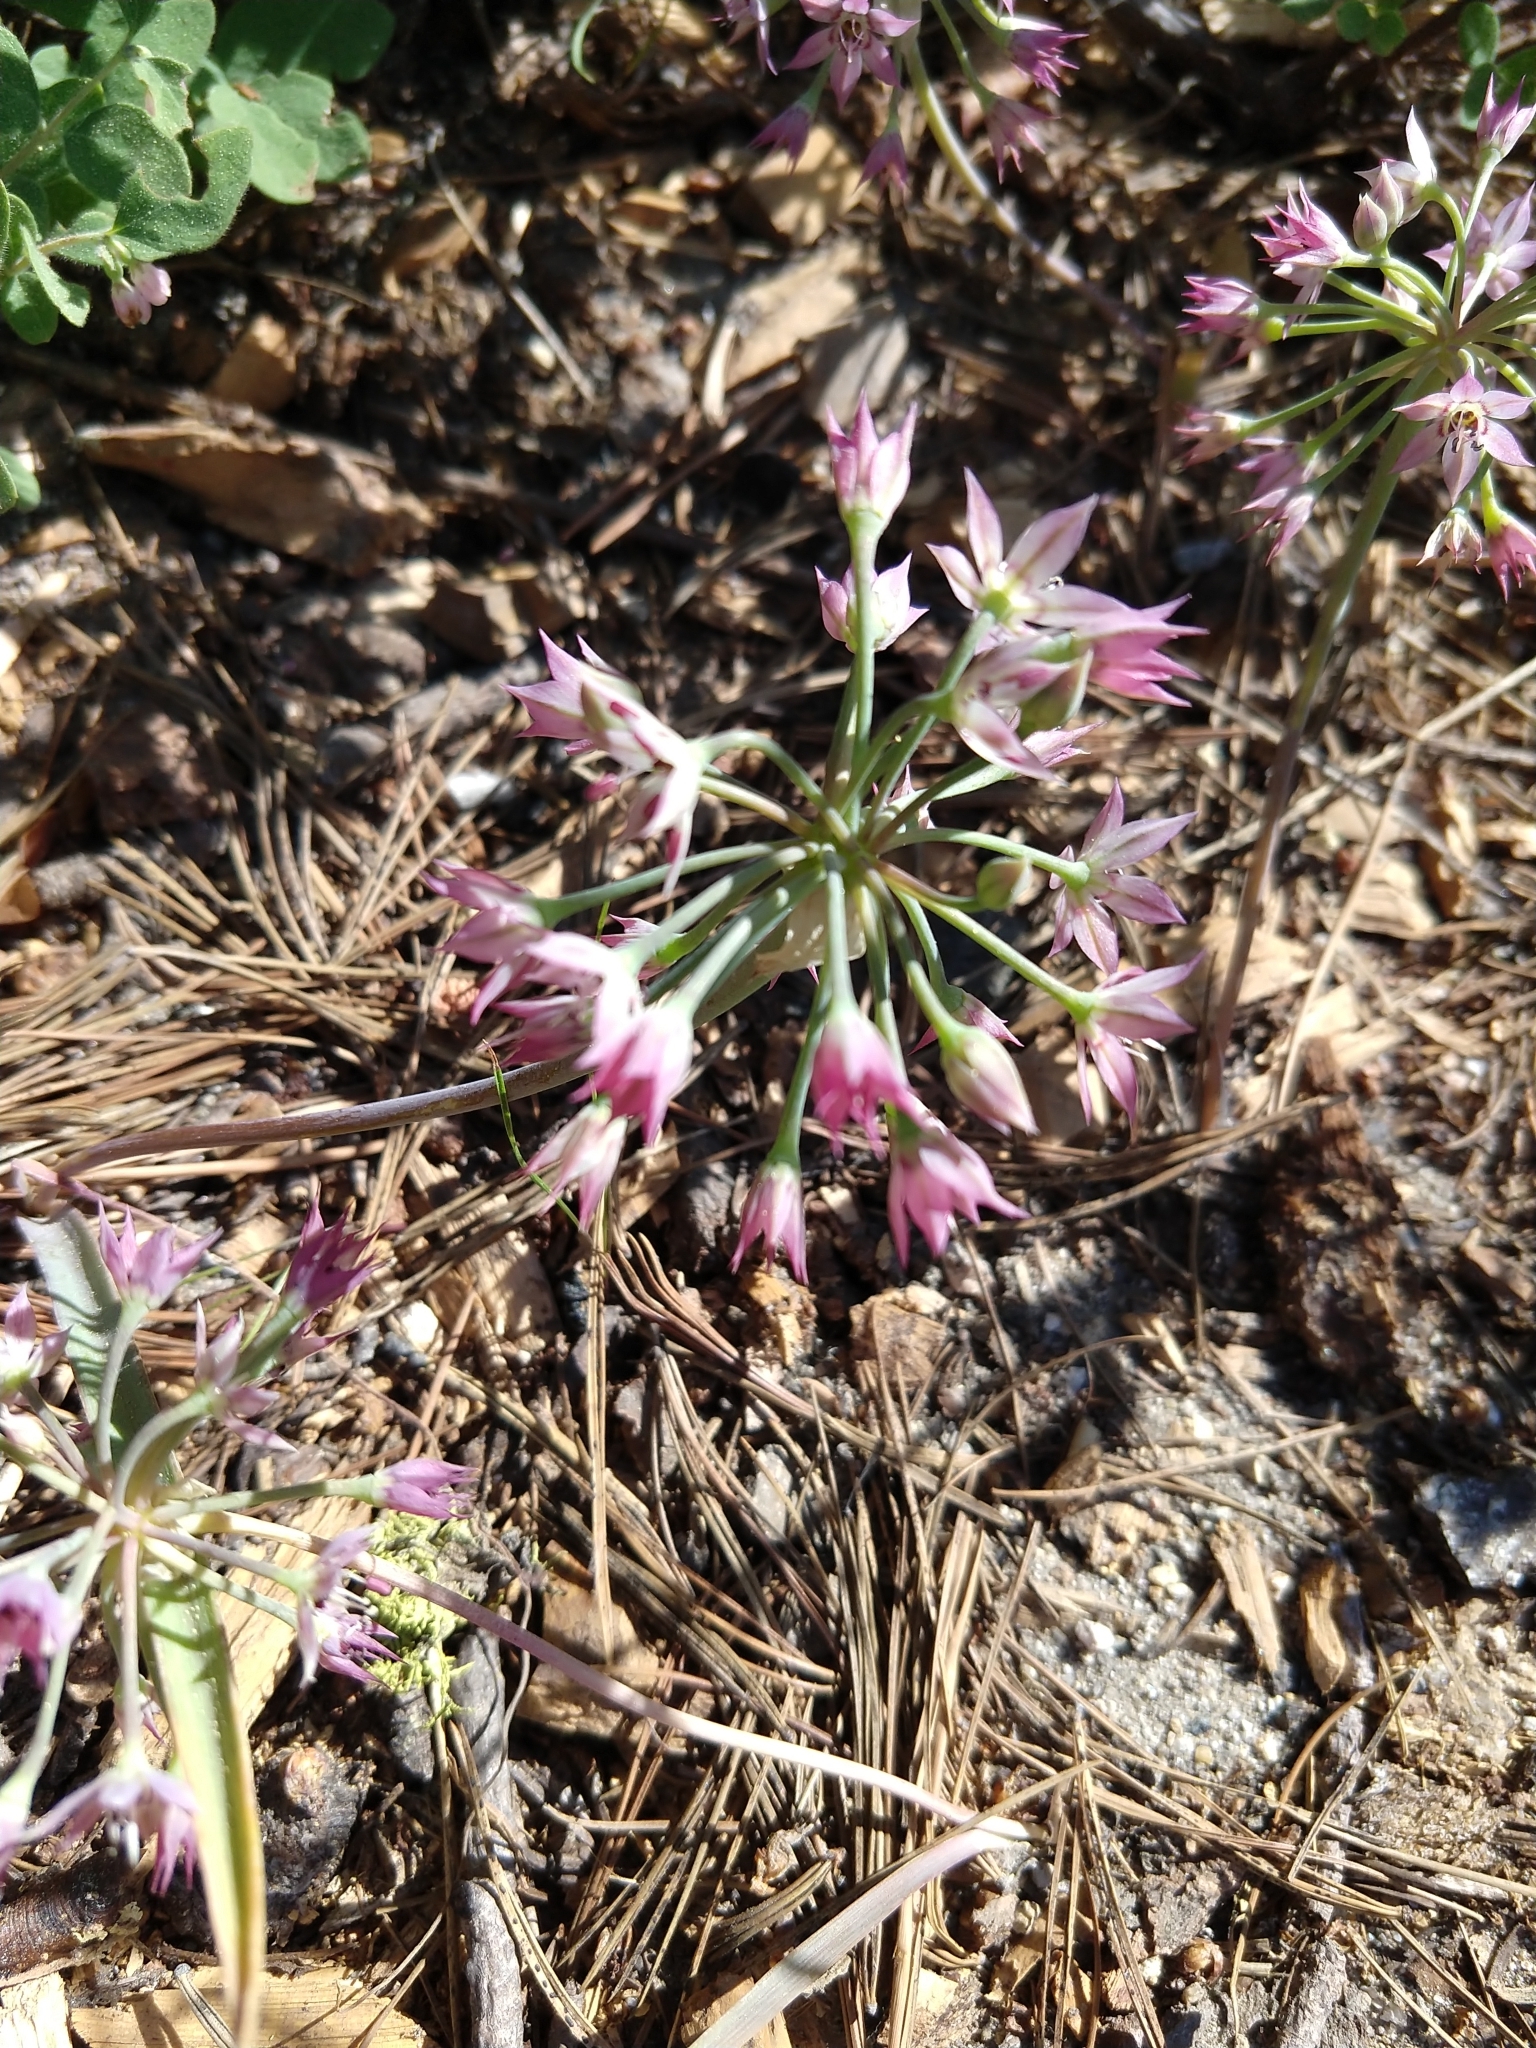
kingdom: Plantae
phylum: Tracheophyta
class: Liliopsida
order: Asparagales
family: Amaryllidaceae
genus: Allium
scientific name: Allium campanulatum
